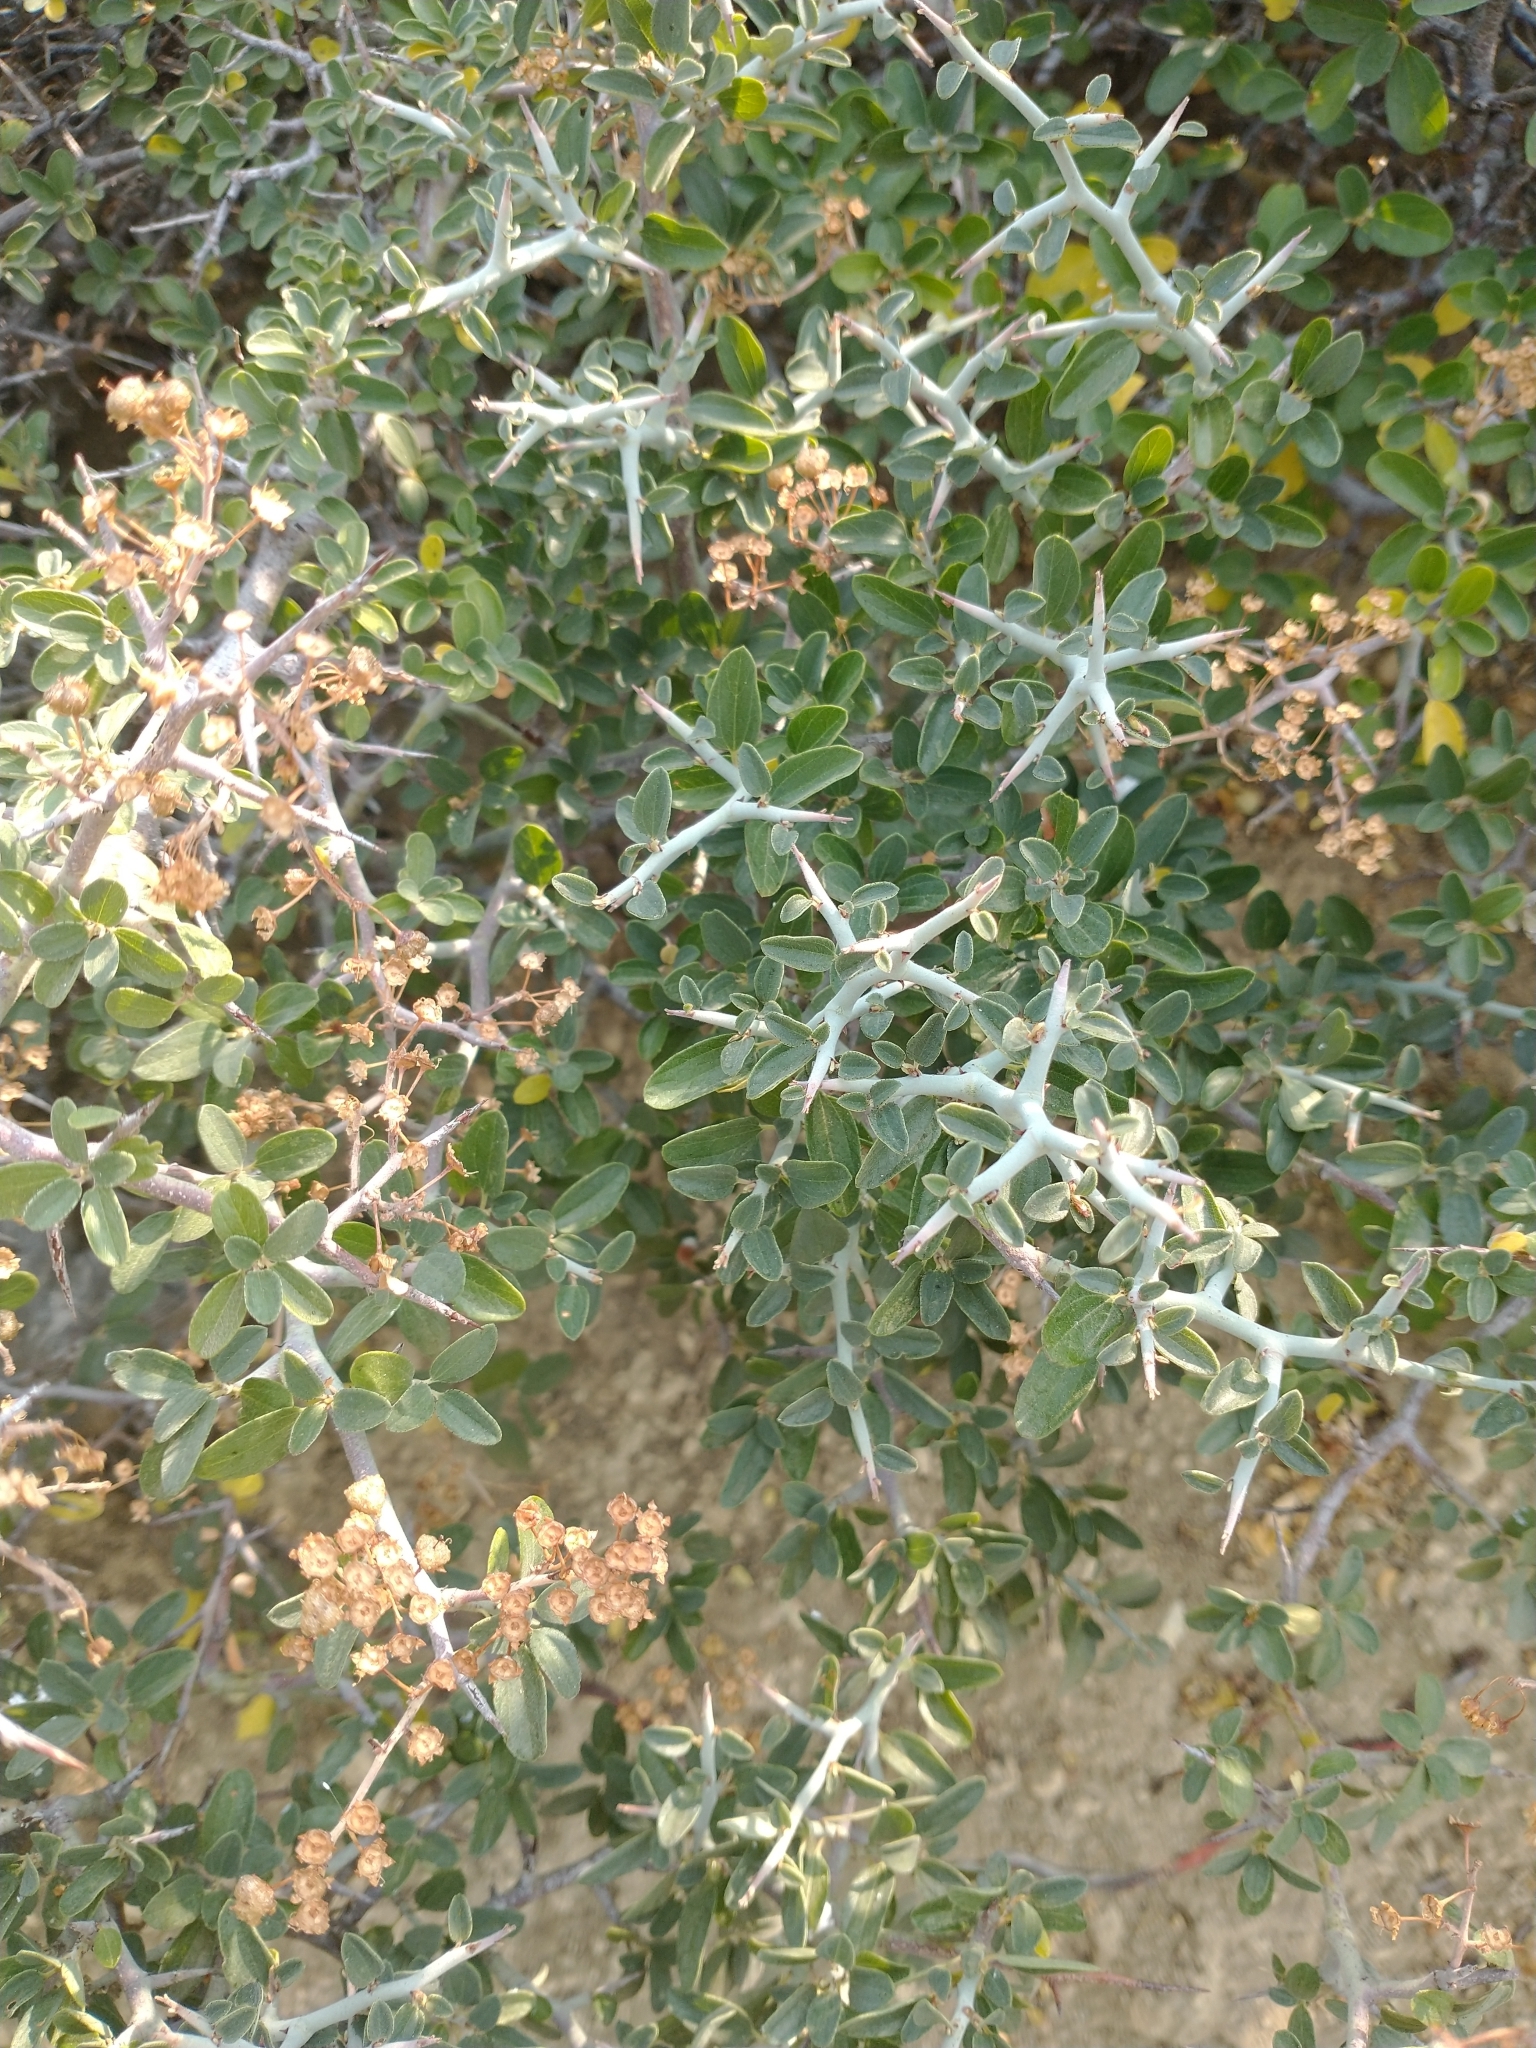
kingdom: Plantae
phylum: Tracheophyta
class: Magnoliopsida
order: Rosales
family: Rhamnaceae
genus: Ceanothus
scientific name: Ceanothus cordulatus
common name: Mountain whitethorn
